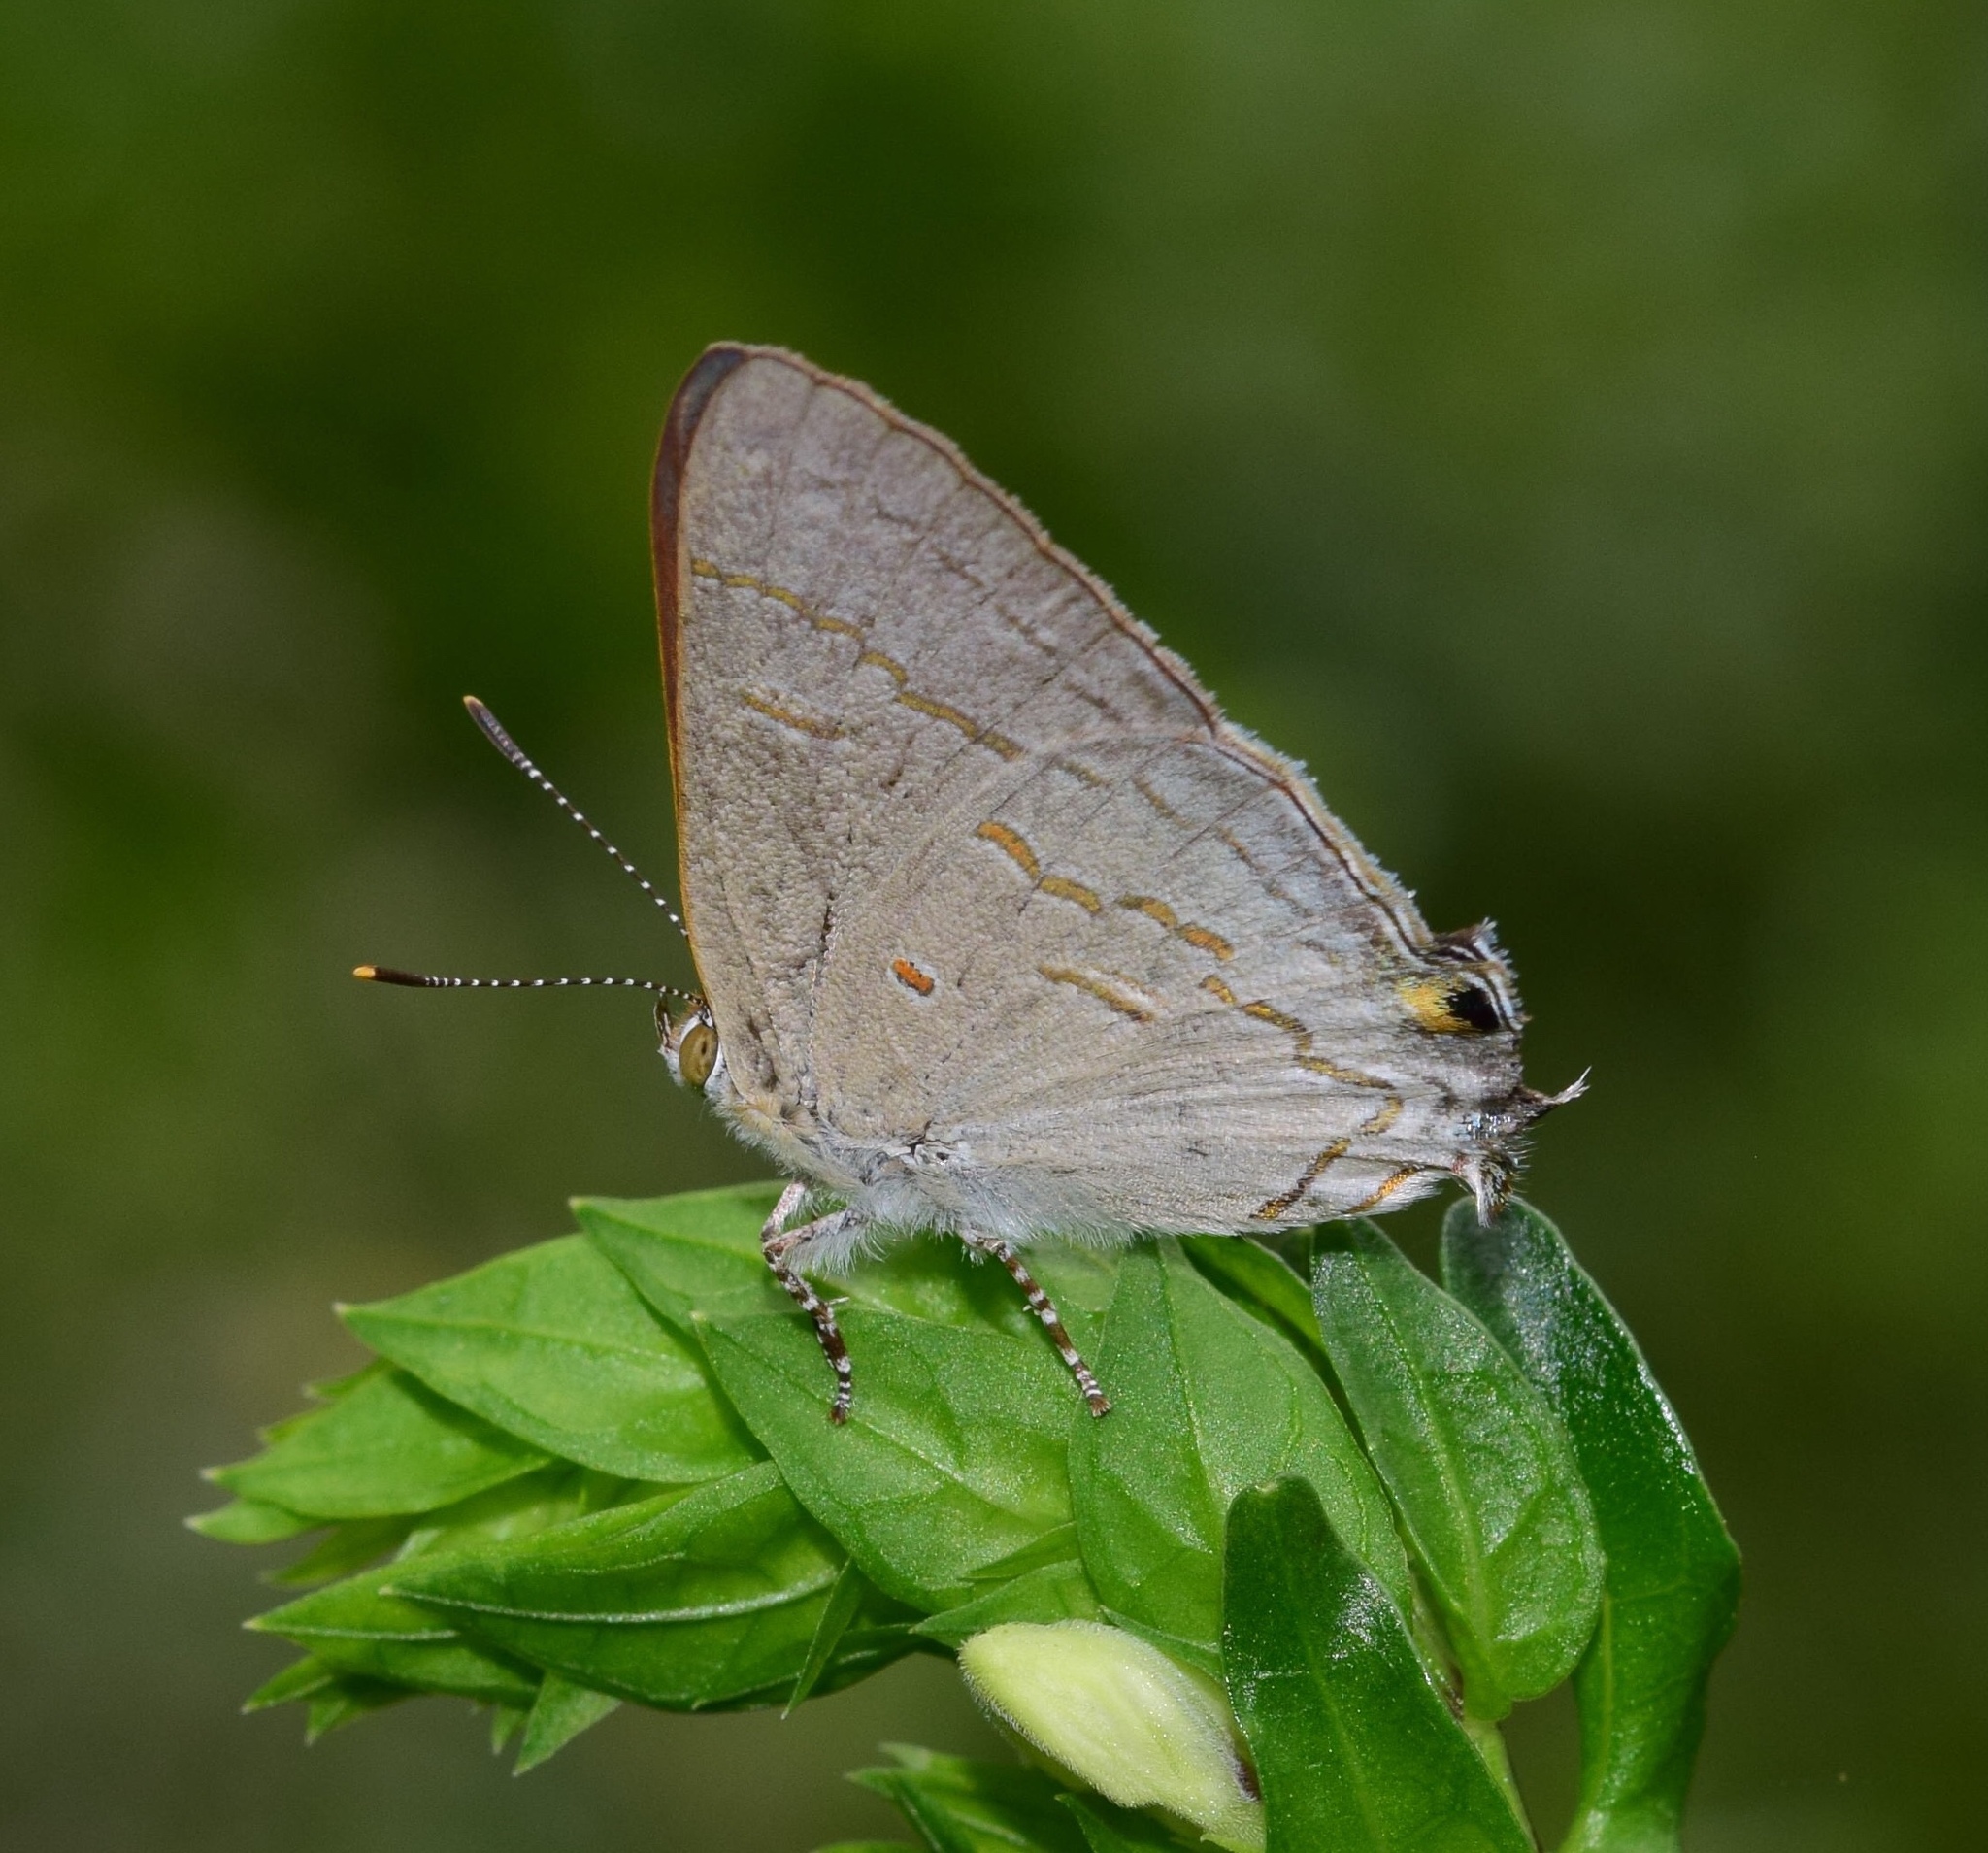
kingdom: Animalia
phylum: Arthropoda
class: Insecta
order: Lepidoptera
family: Lycaenidae
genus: Hypolycaena
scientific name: Hypolycaena philippus
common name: Common hairstreak
